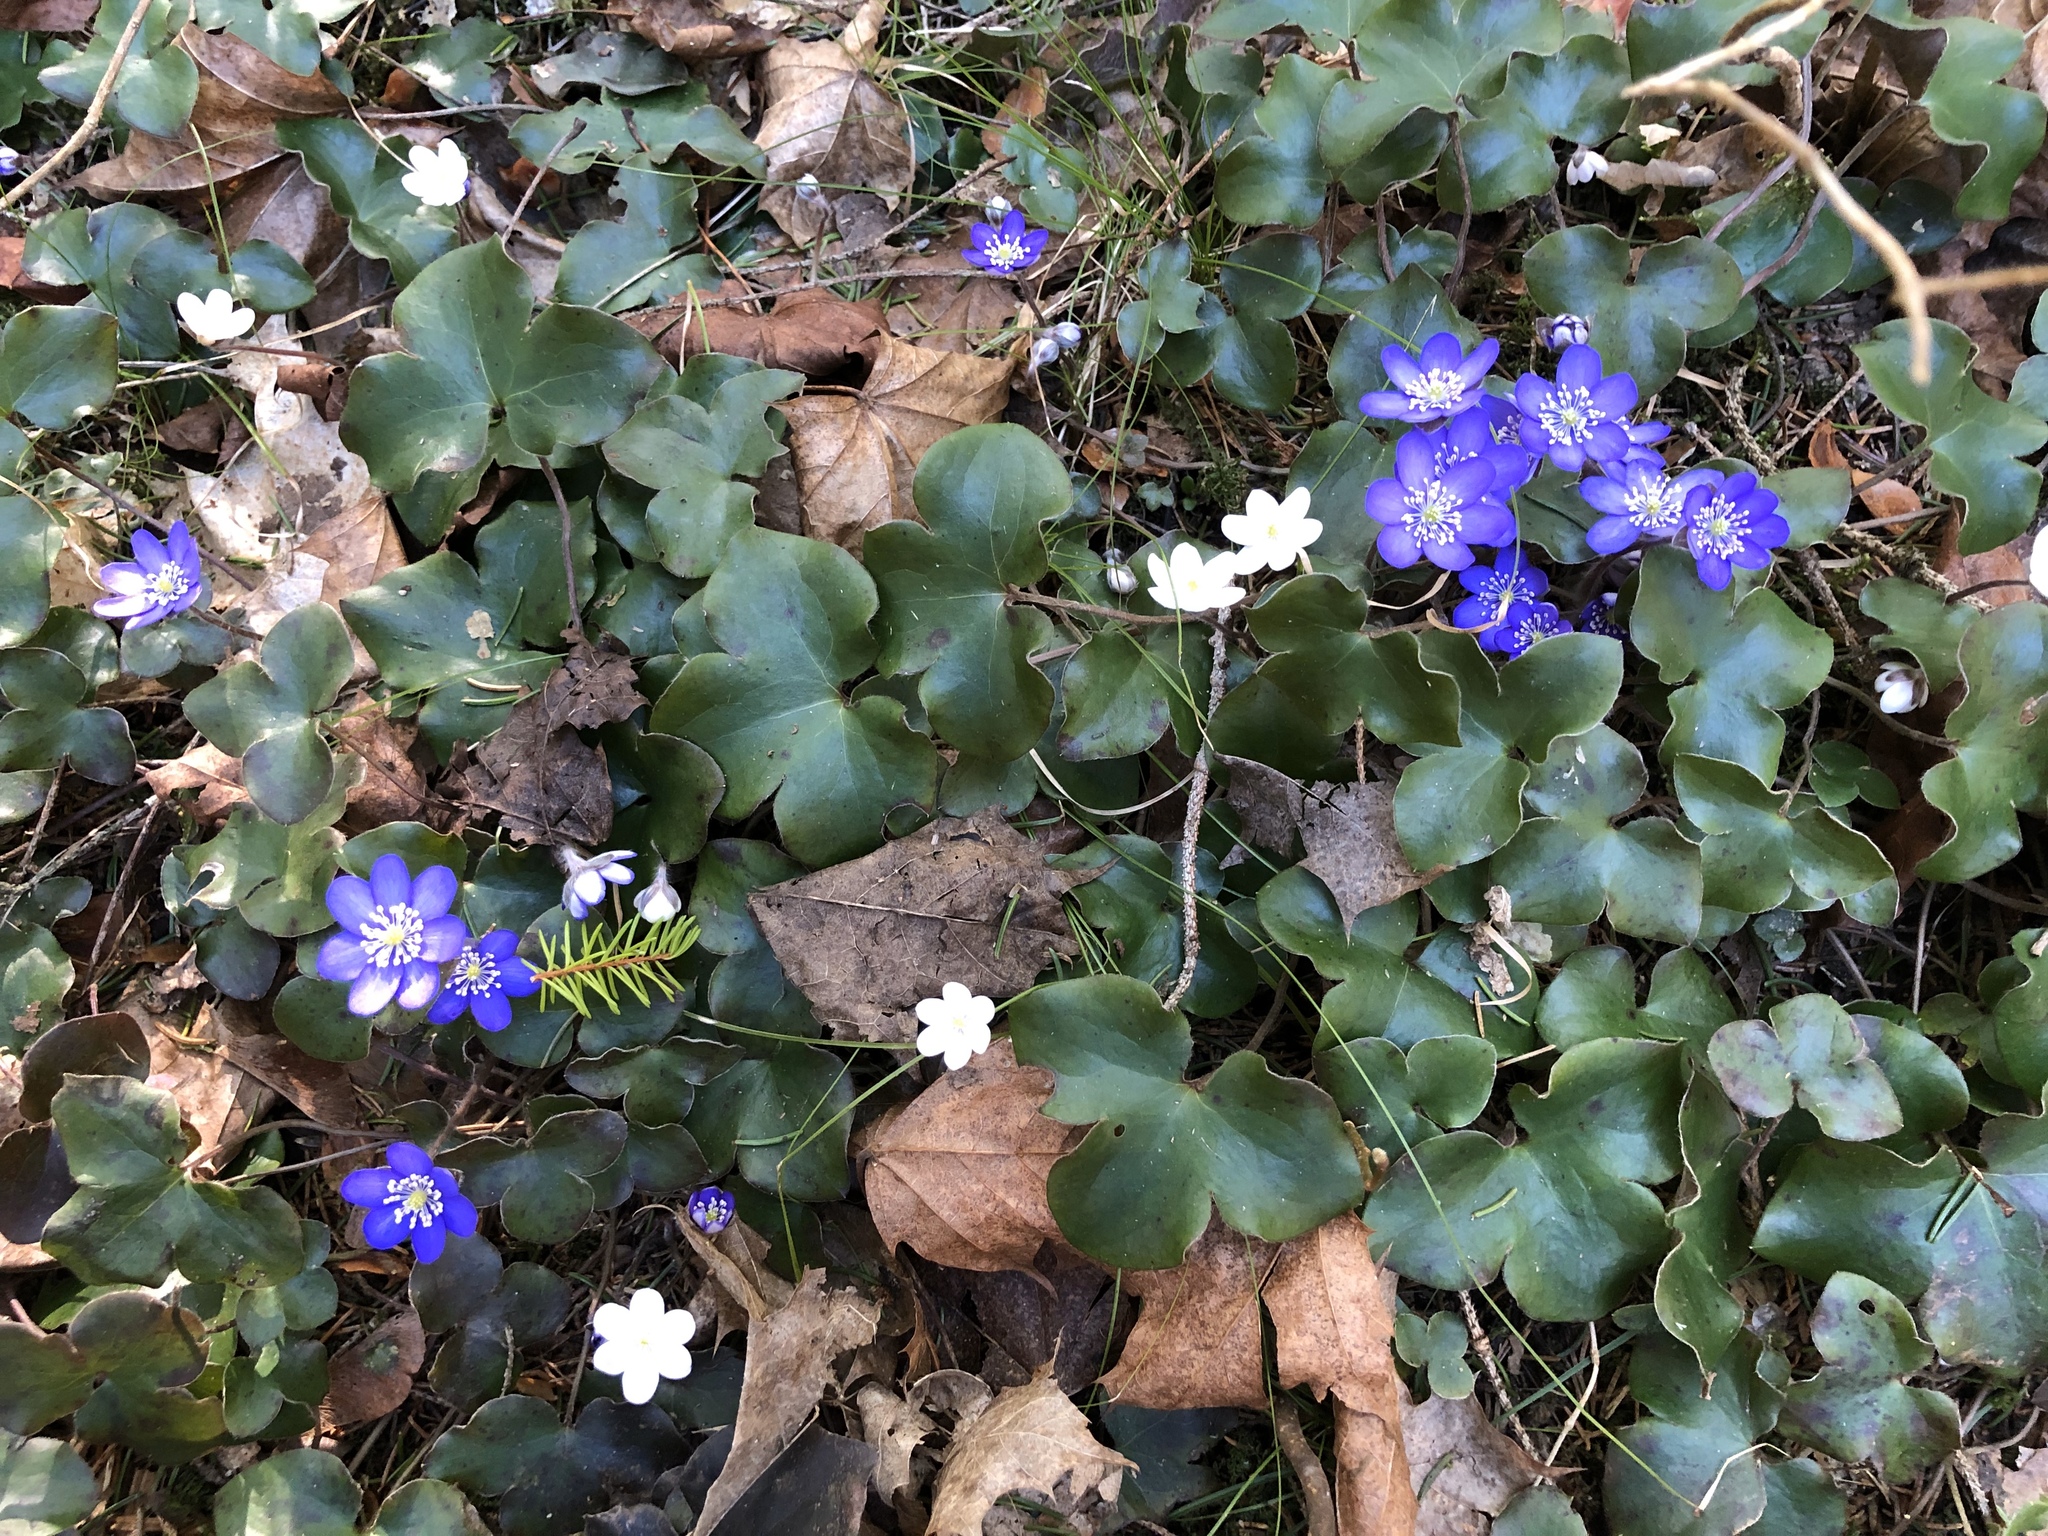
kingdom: Plantae
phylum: Tracheophyta
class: Magnoliopsida
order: Ranunculales
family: Ranunculaceae
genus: Hepatica
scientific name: Hepatica nobilis
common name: Liverleaf
